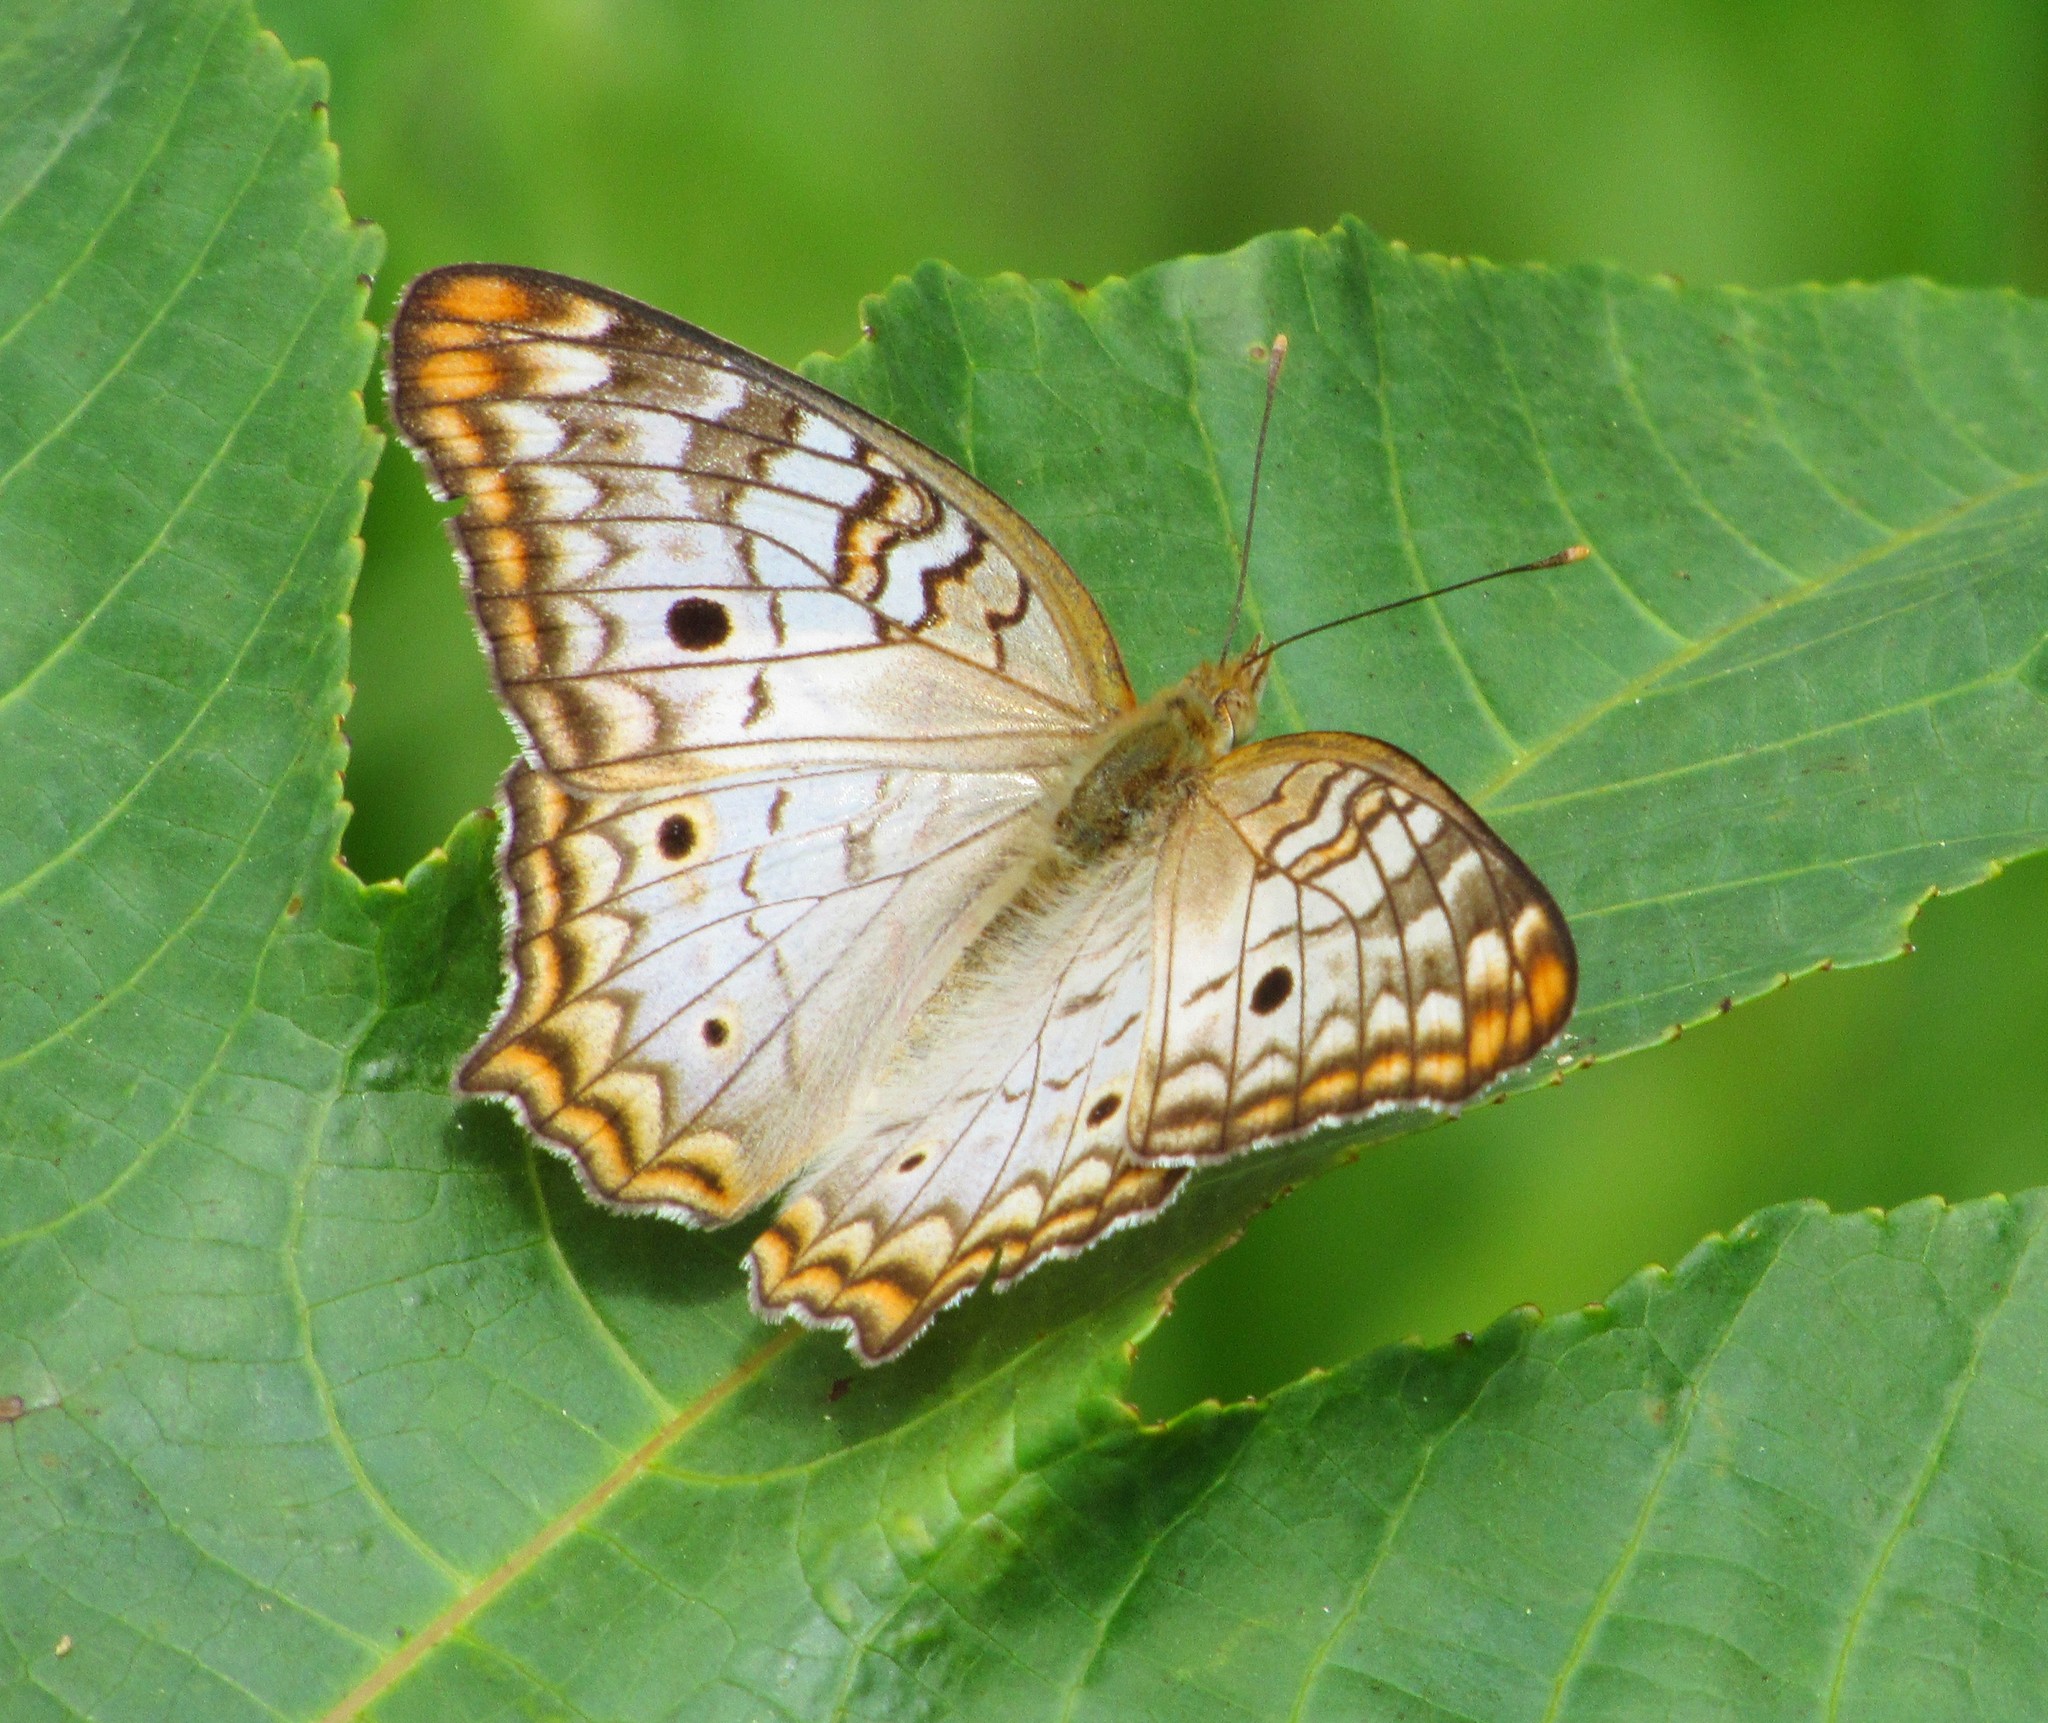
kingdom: Animalia
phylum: Arthropoda
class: Insecta
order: Lepidoptera
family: Nymphalidae
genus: Anartia
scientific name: Anartia jatrophae
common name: White peacock
